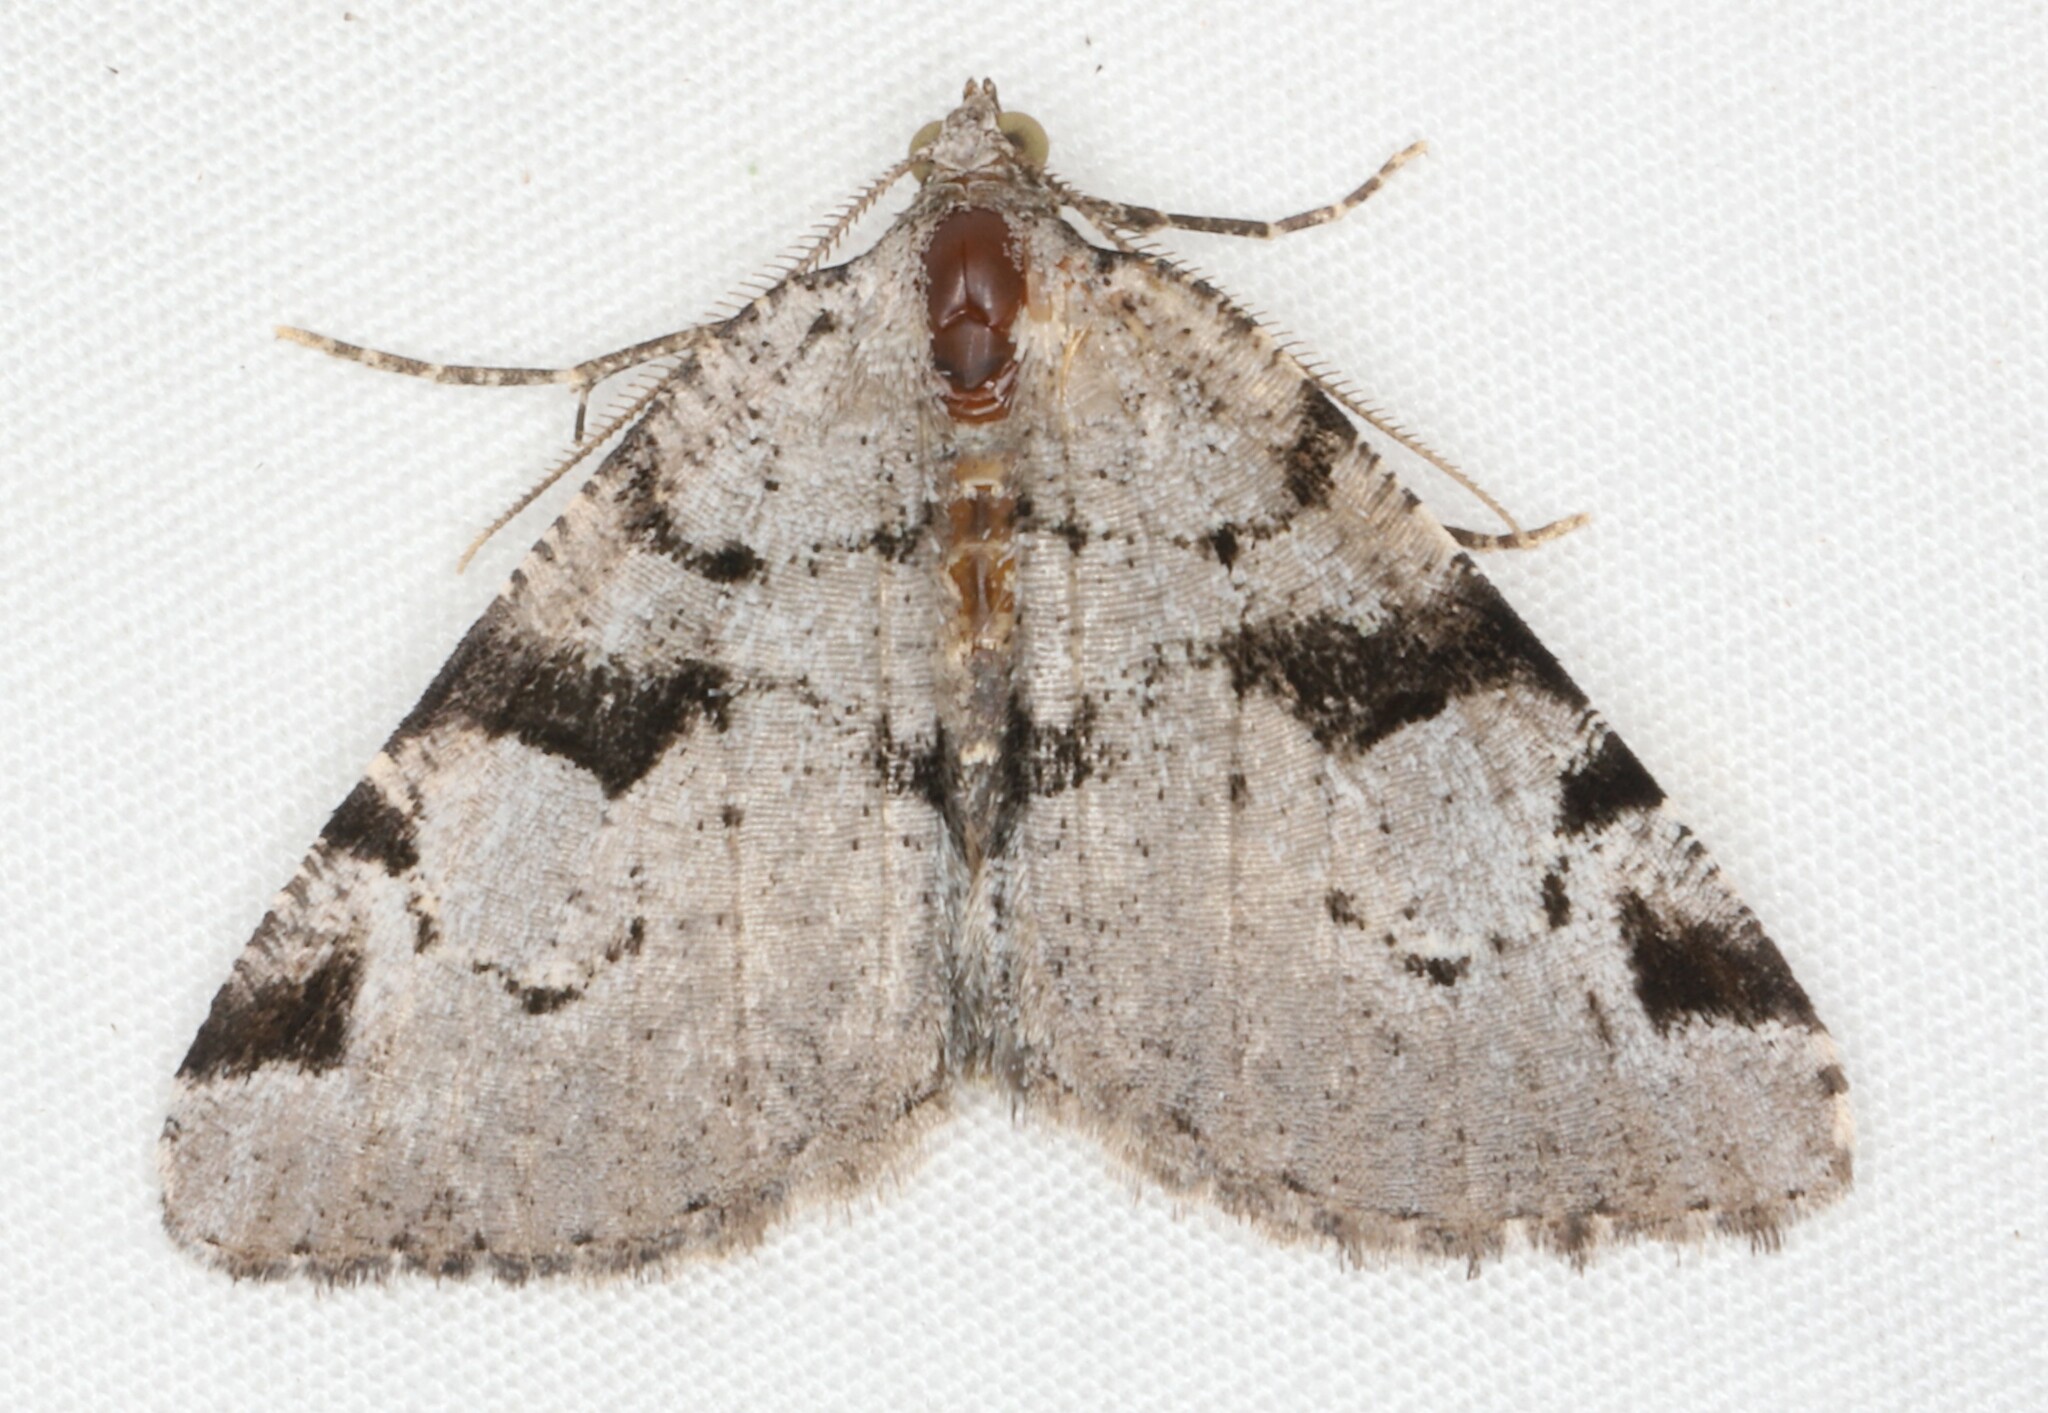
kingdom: Animalia
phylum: Arthropoda
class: Insecta
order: Lepidoptera
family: Geometridae
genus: Macaria
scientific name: Macaria bitactata
